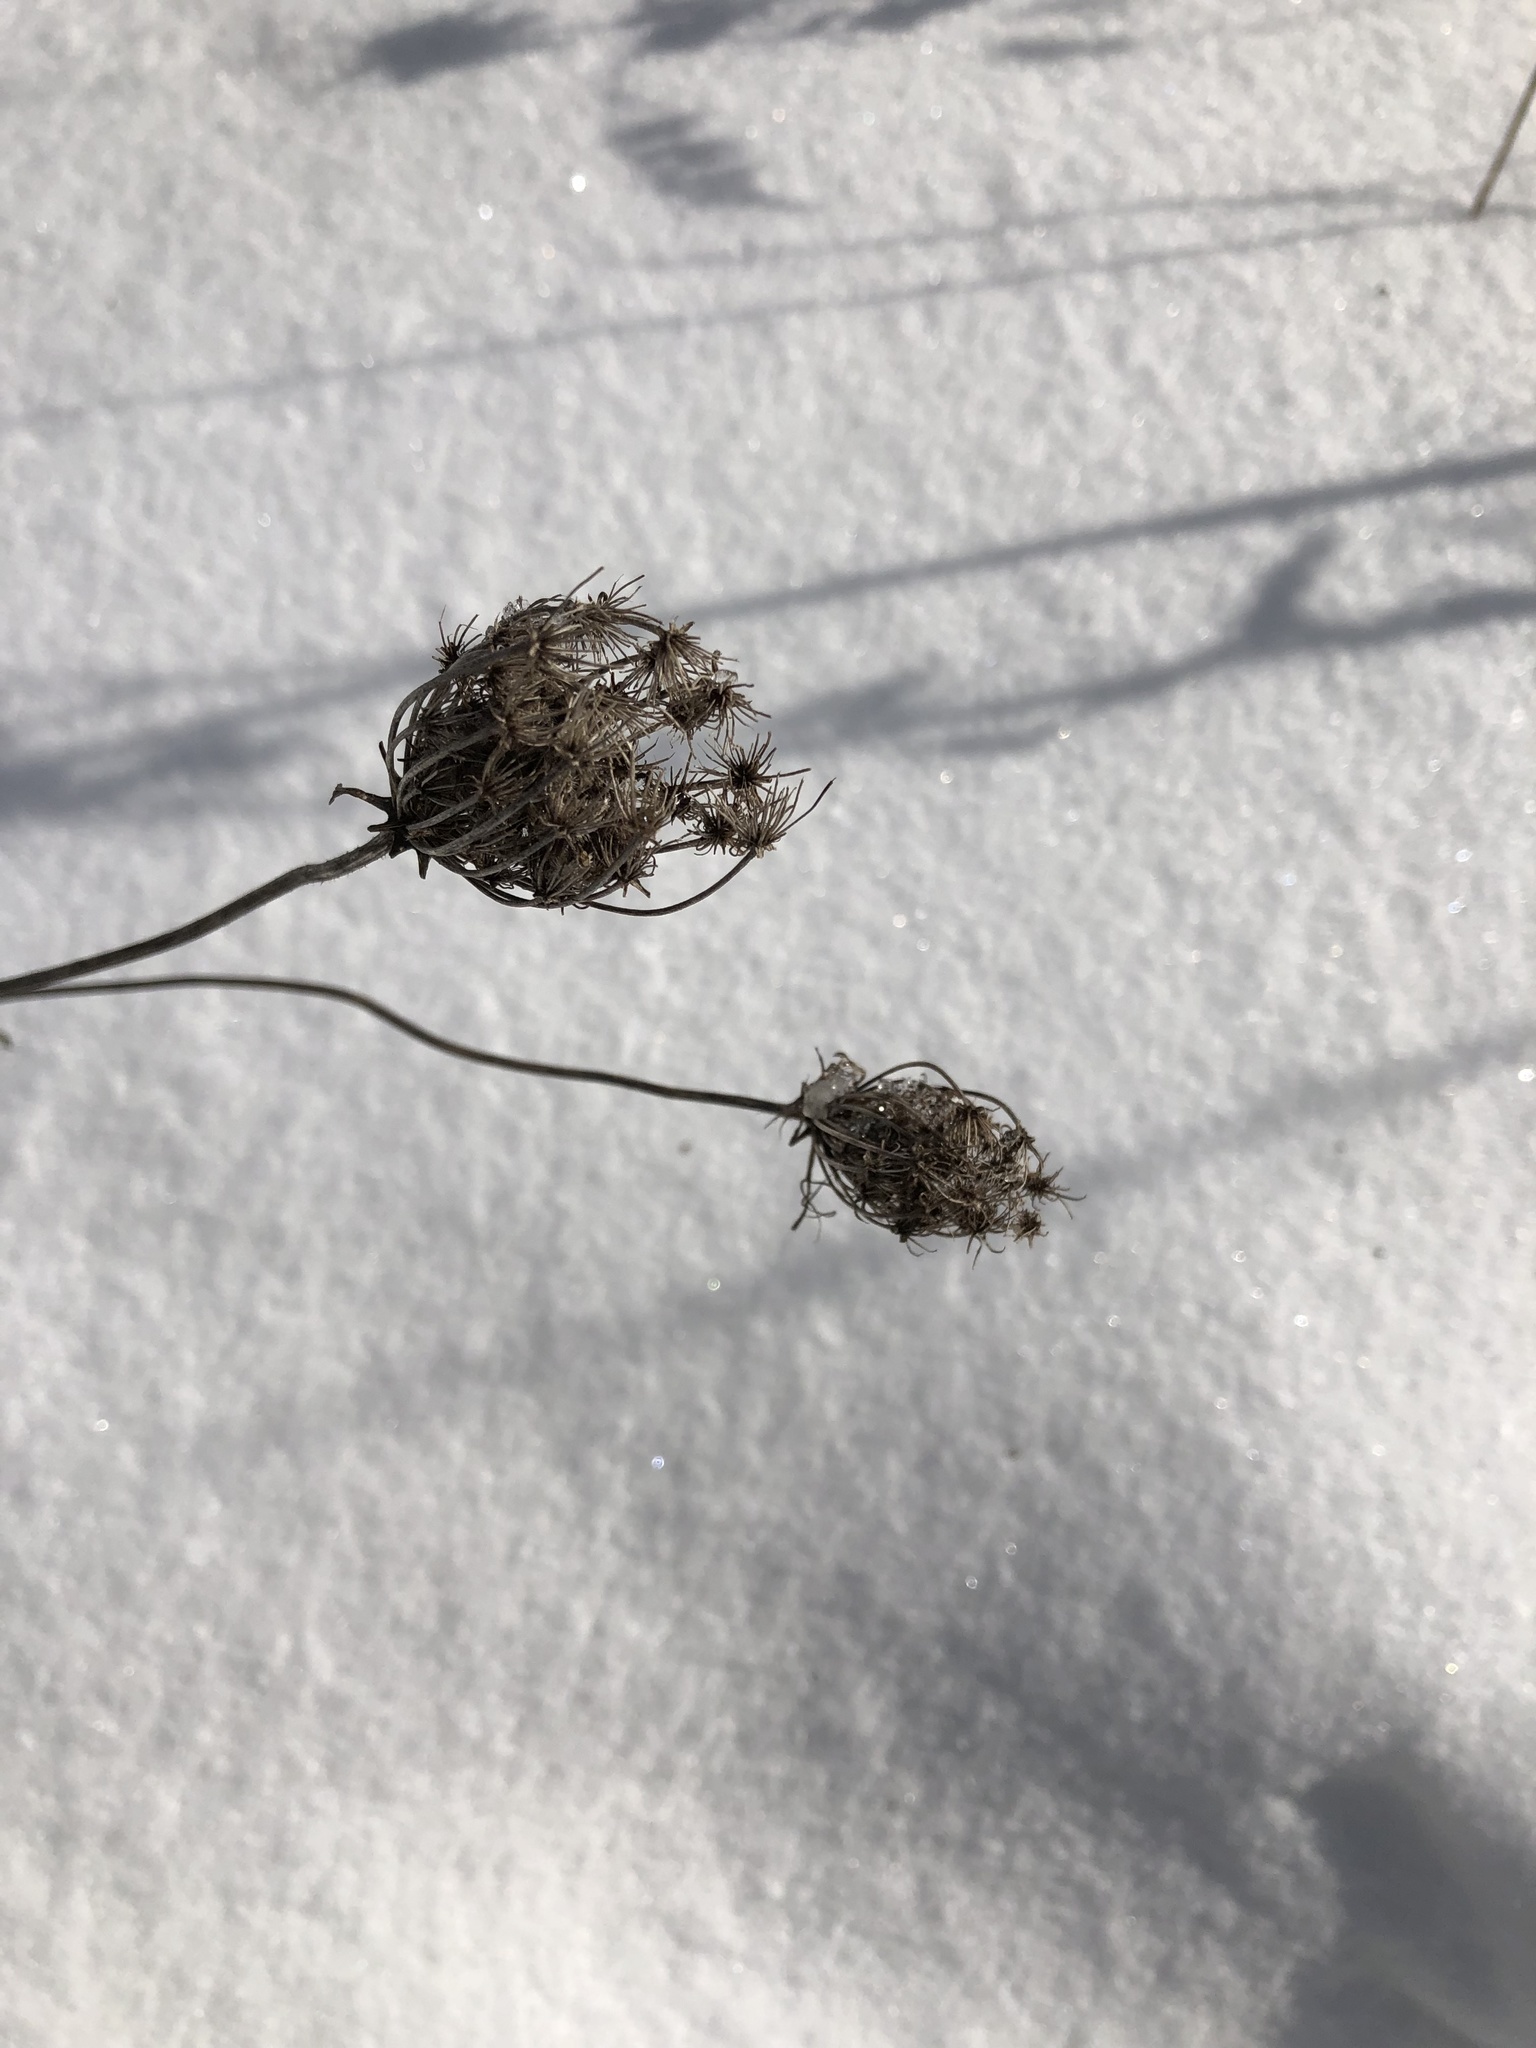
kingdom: Plantae
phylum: Tracheophyta
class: Magnoliopsida
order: Apiales
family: Apiaceae
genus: Daucus
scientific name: Daucus carota
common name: Wild carrot
